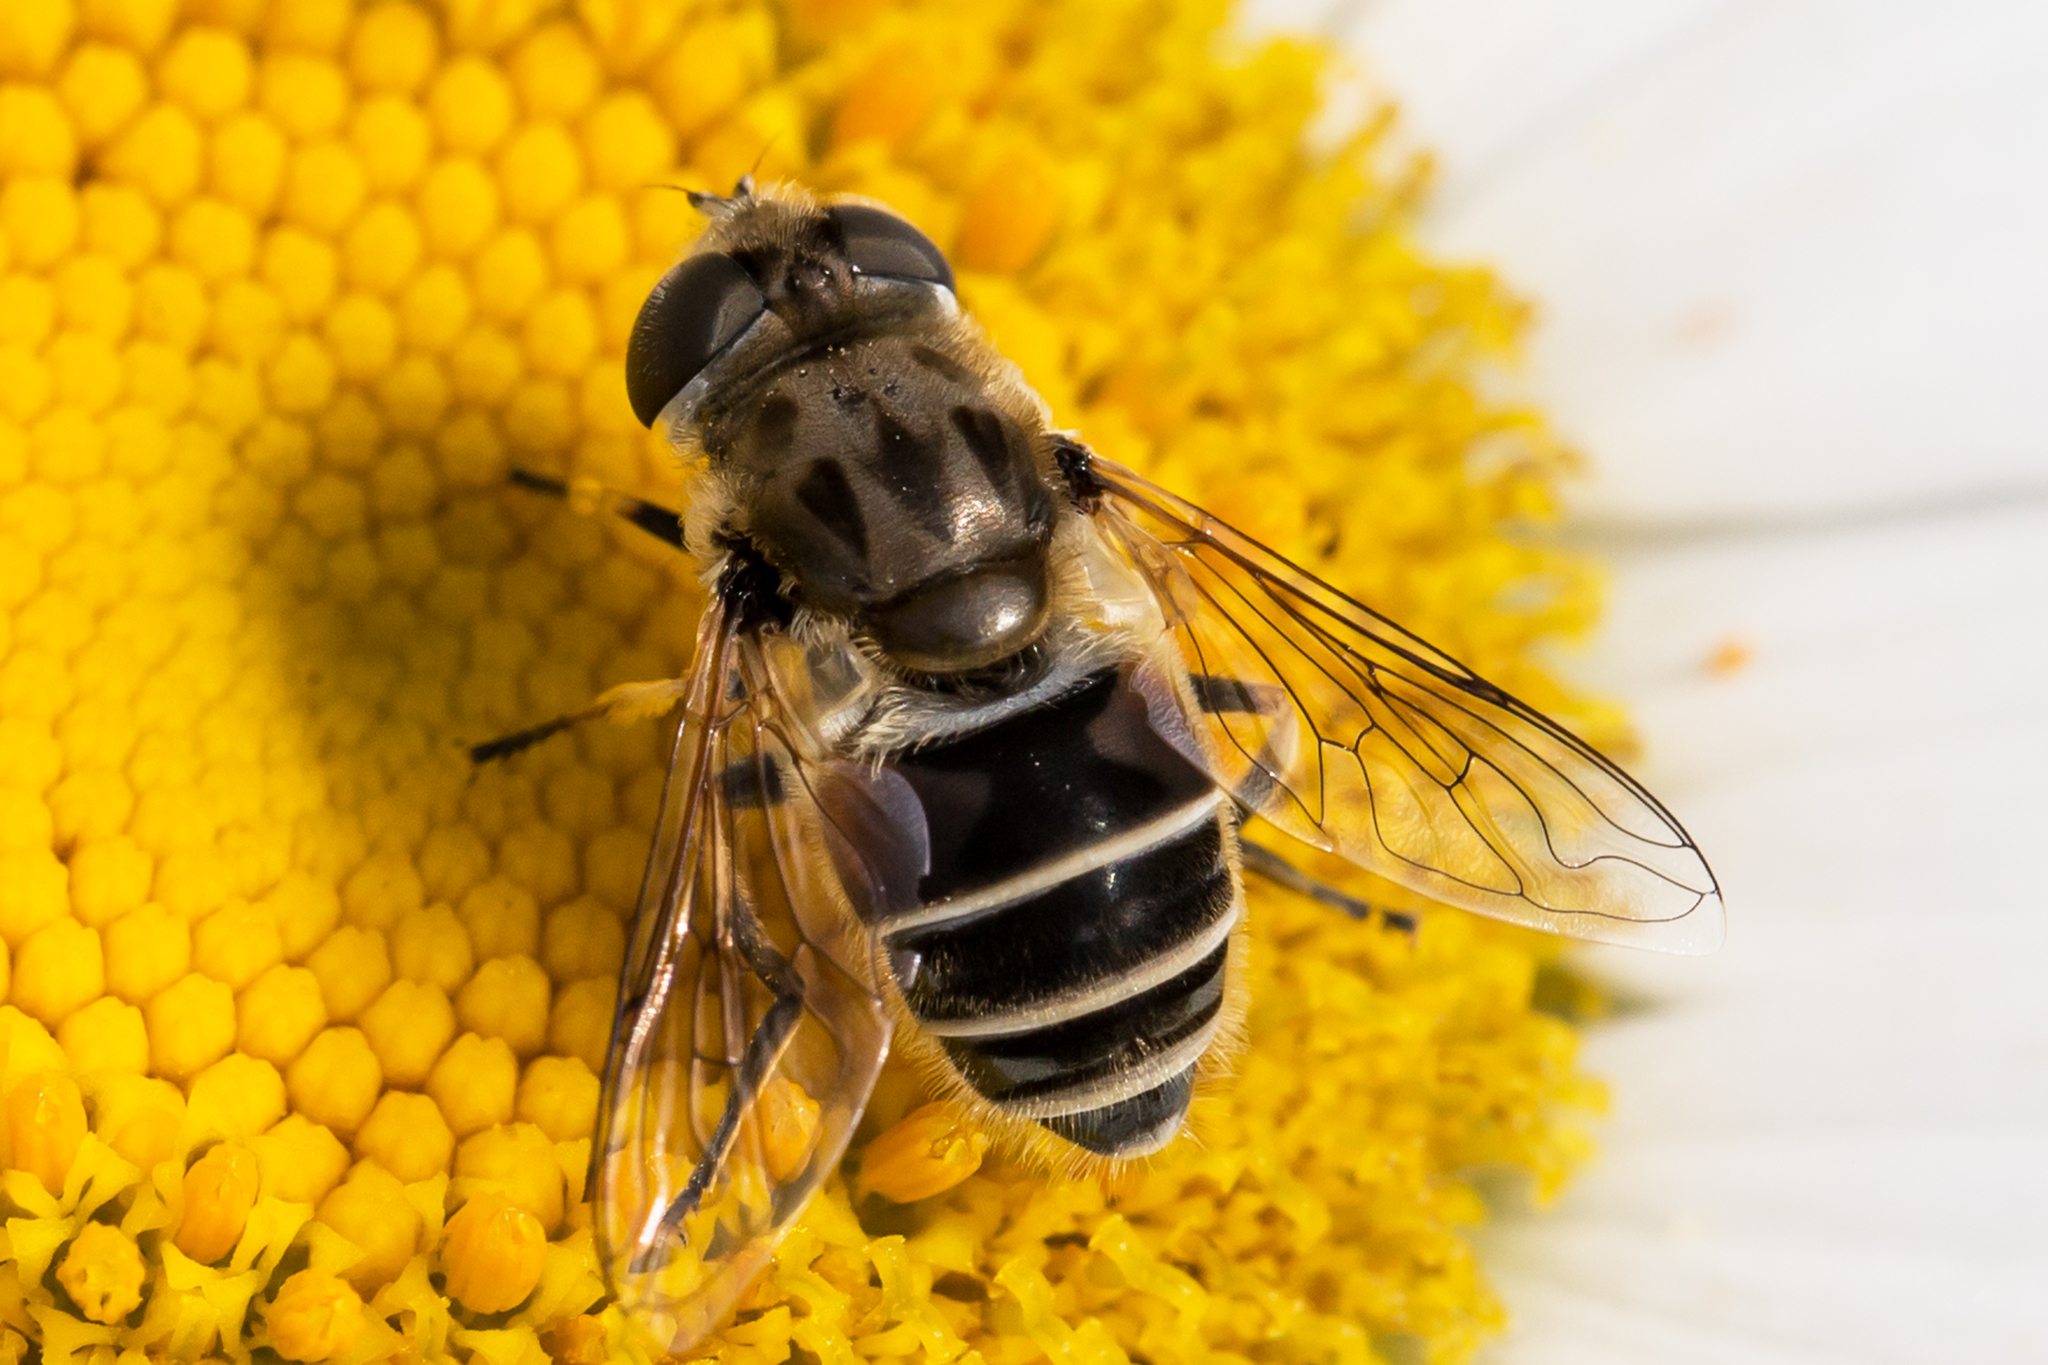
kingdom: Animalia
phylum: Arthropoda
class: Insecta
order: Diptera
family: Syrphidae
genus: Eristalis
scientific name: Eristalis arbustorum
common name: Hover fly
